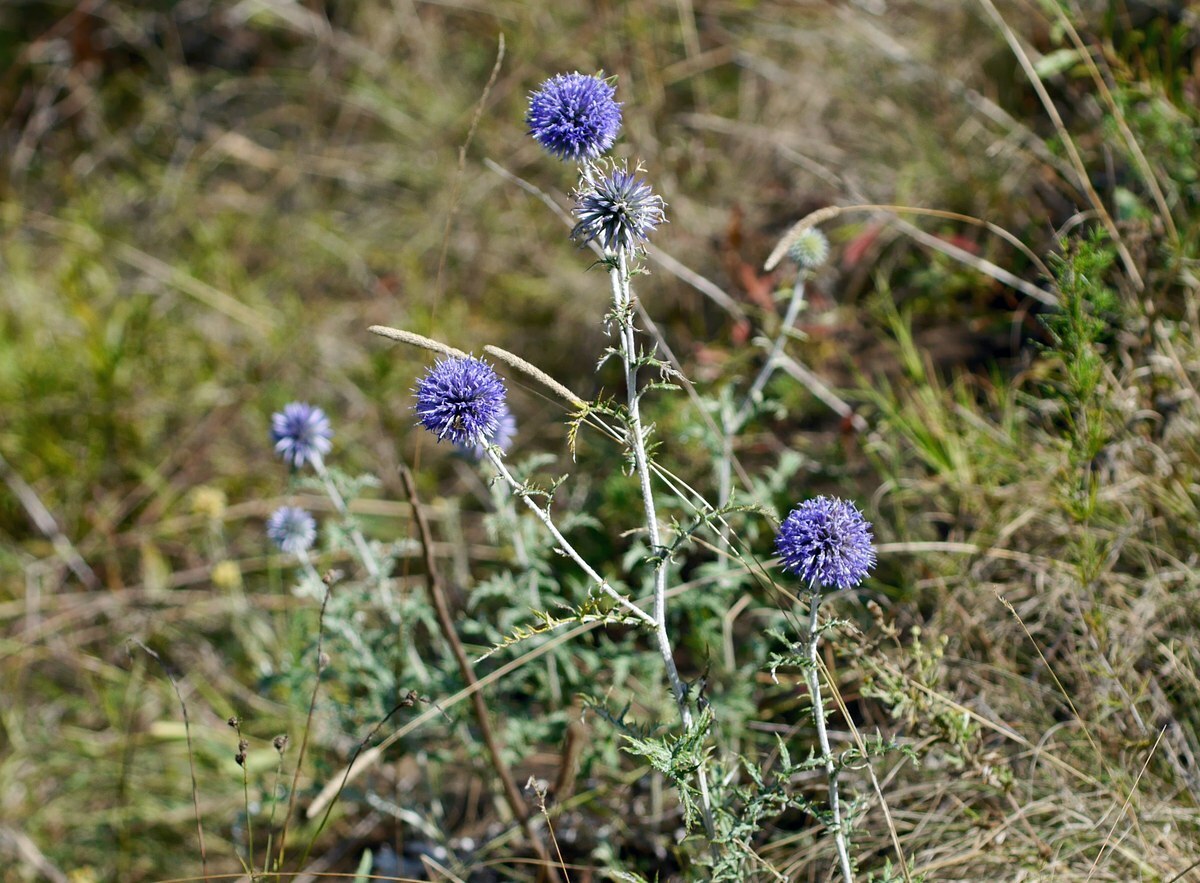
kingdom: Plantae
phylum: Tracheophyta
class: Magnoliopsida
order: Asterales
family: Asteraceae
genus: Echinops
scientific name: Echinops ritro
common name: Globe thistle
